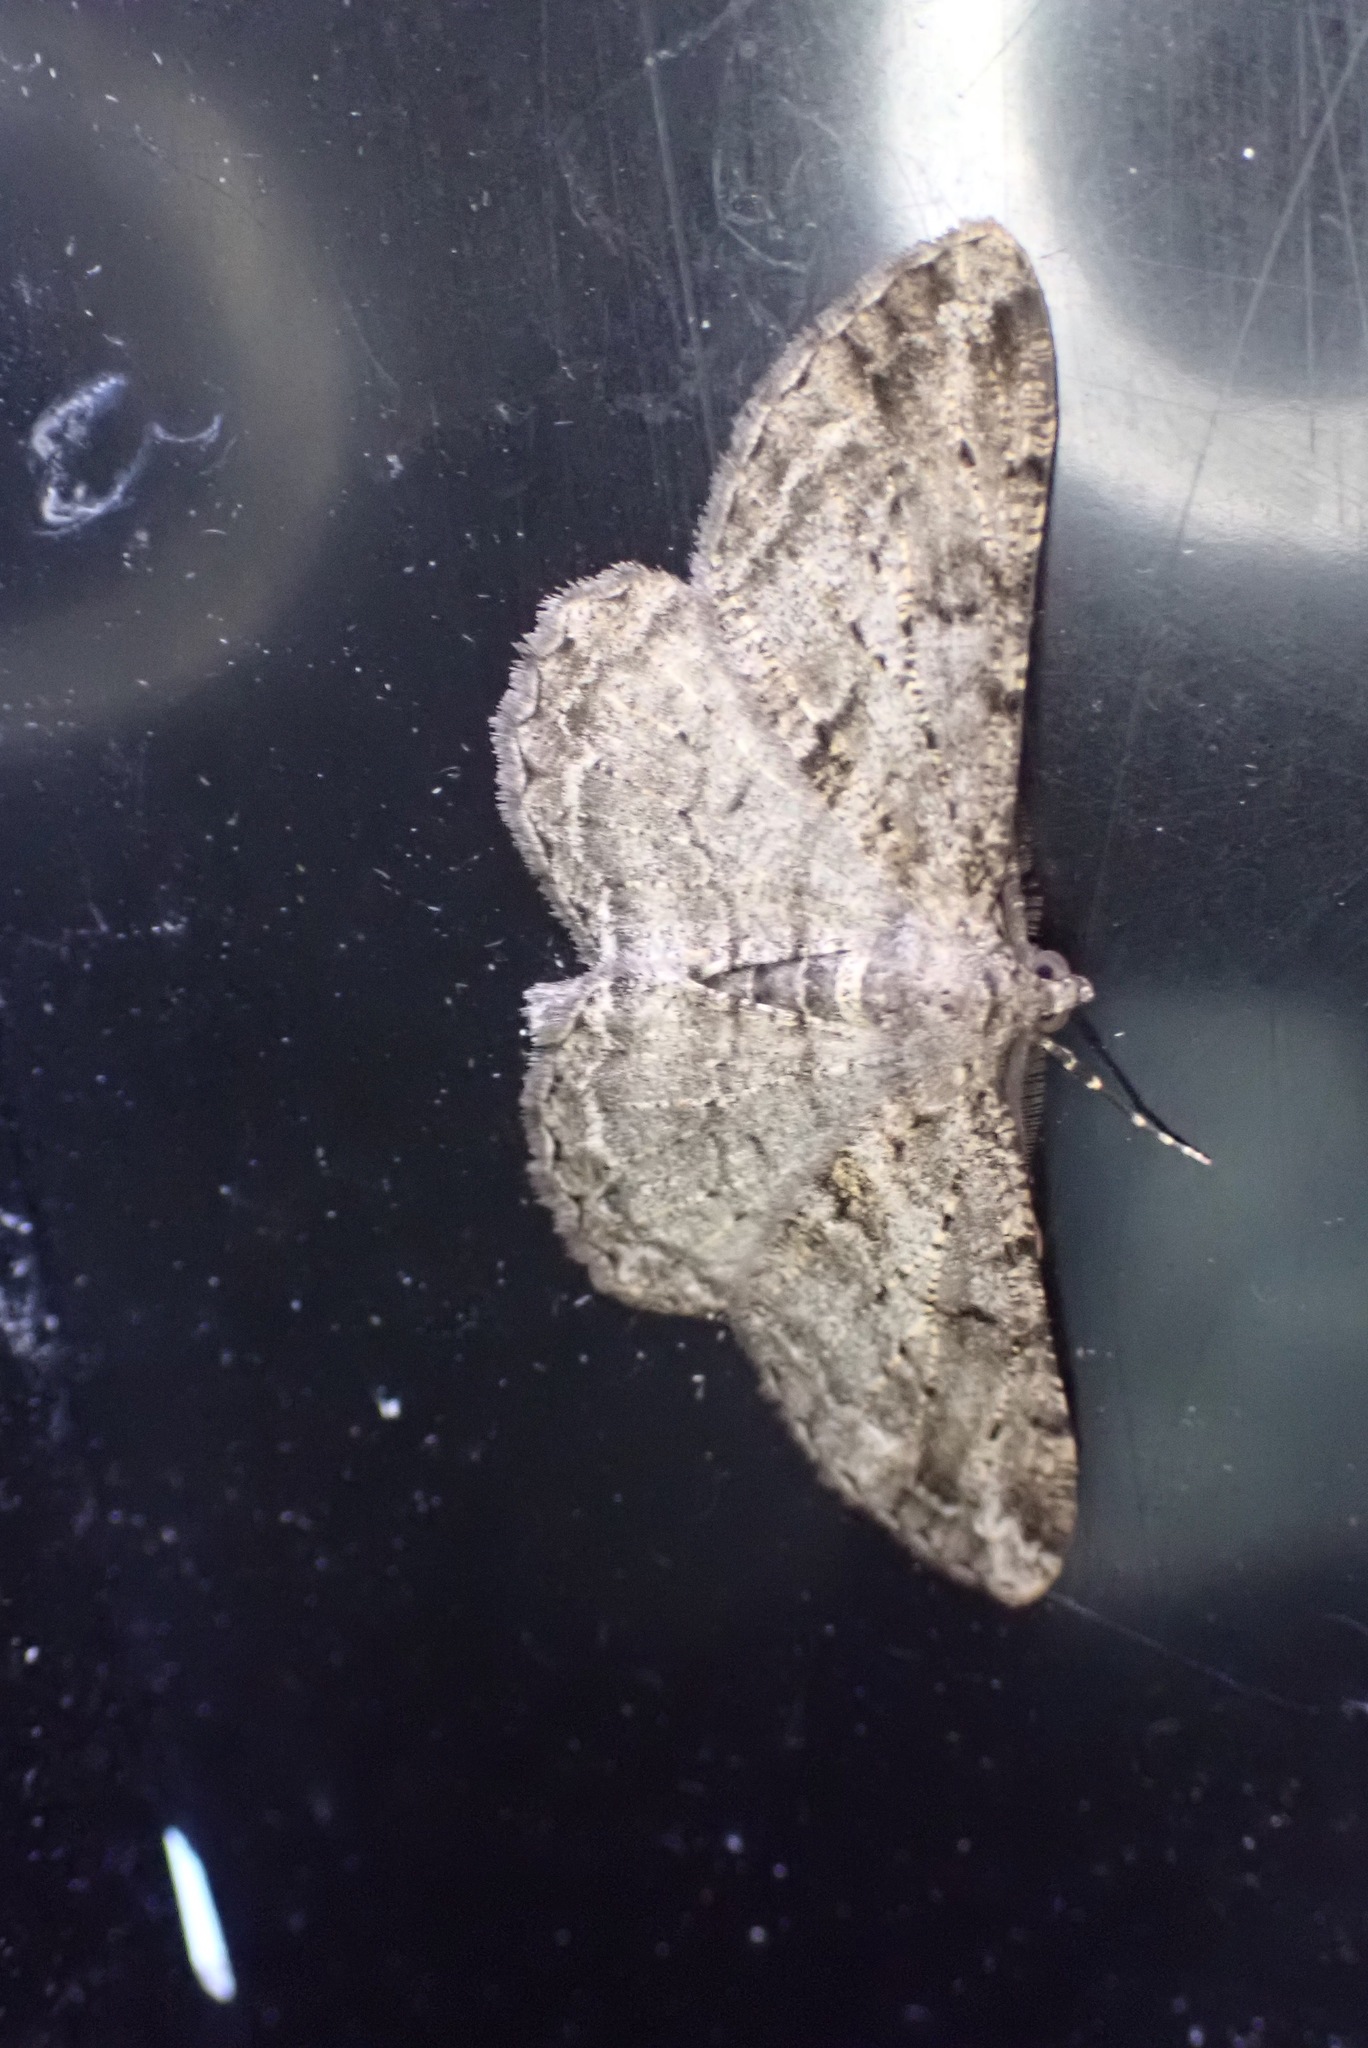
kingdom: Animalia
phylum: Arthropoda
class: Insecta
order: Lepidoptera
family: Geometridae
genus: Peribatodes
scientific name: Peribatodes rhomboidaria
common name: Willow beauty
